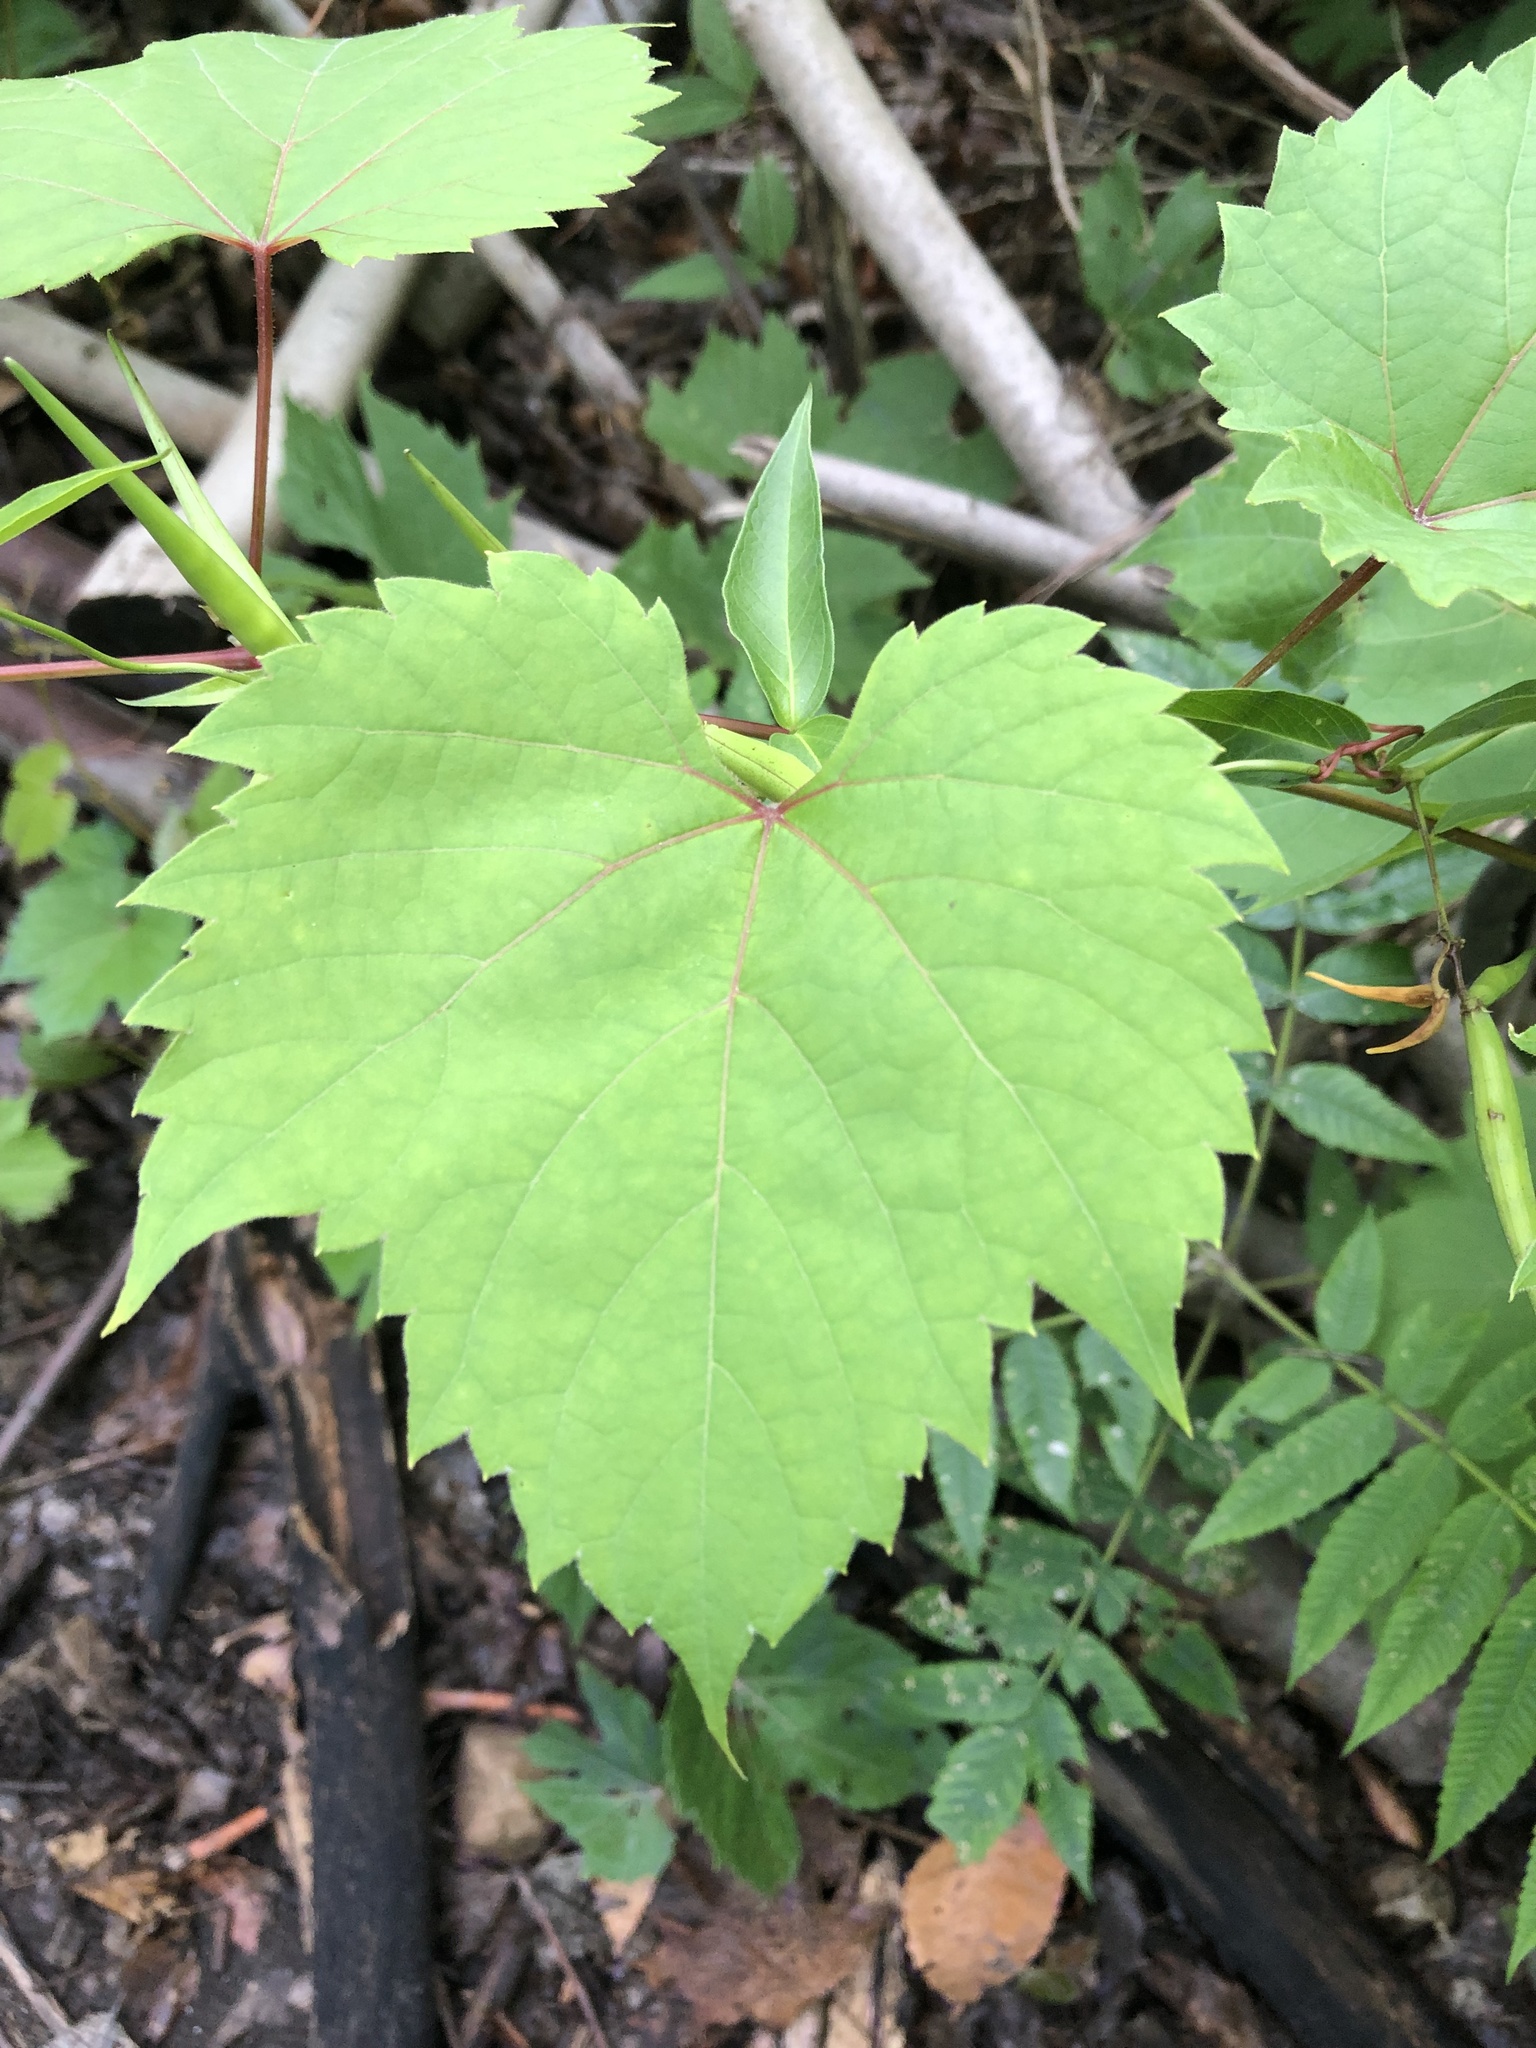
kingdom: Plantae
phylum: Tracheophyta
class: Magnoliopsida
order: Vitales
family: Vitaceae
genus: Vitis
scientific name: Vitis riparia
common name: Frost grape
